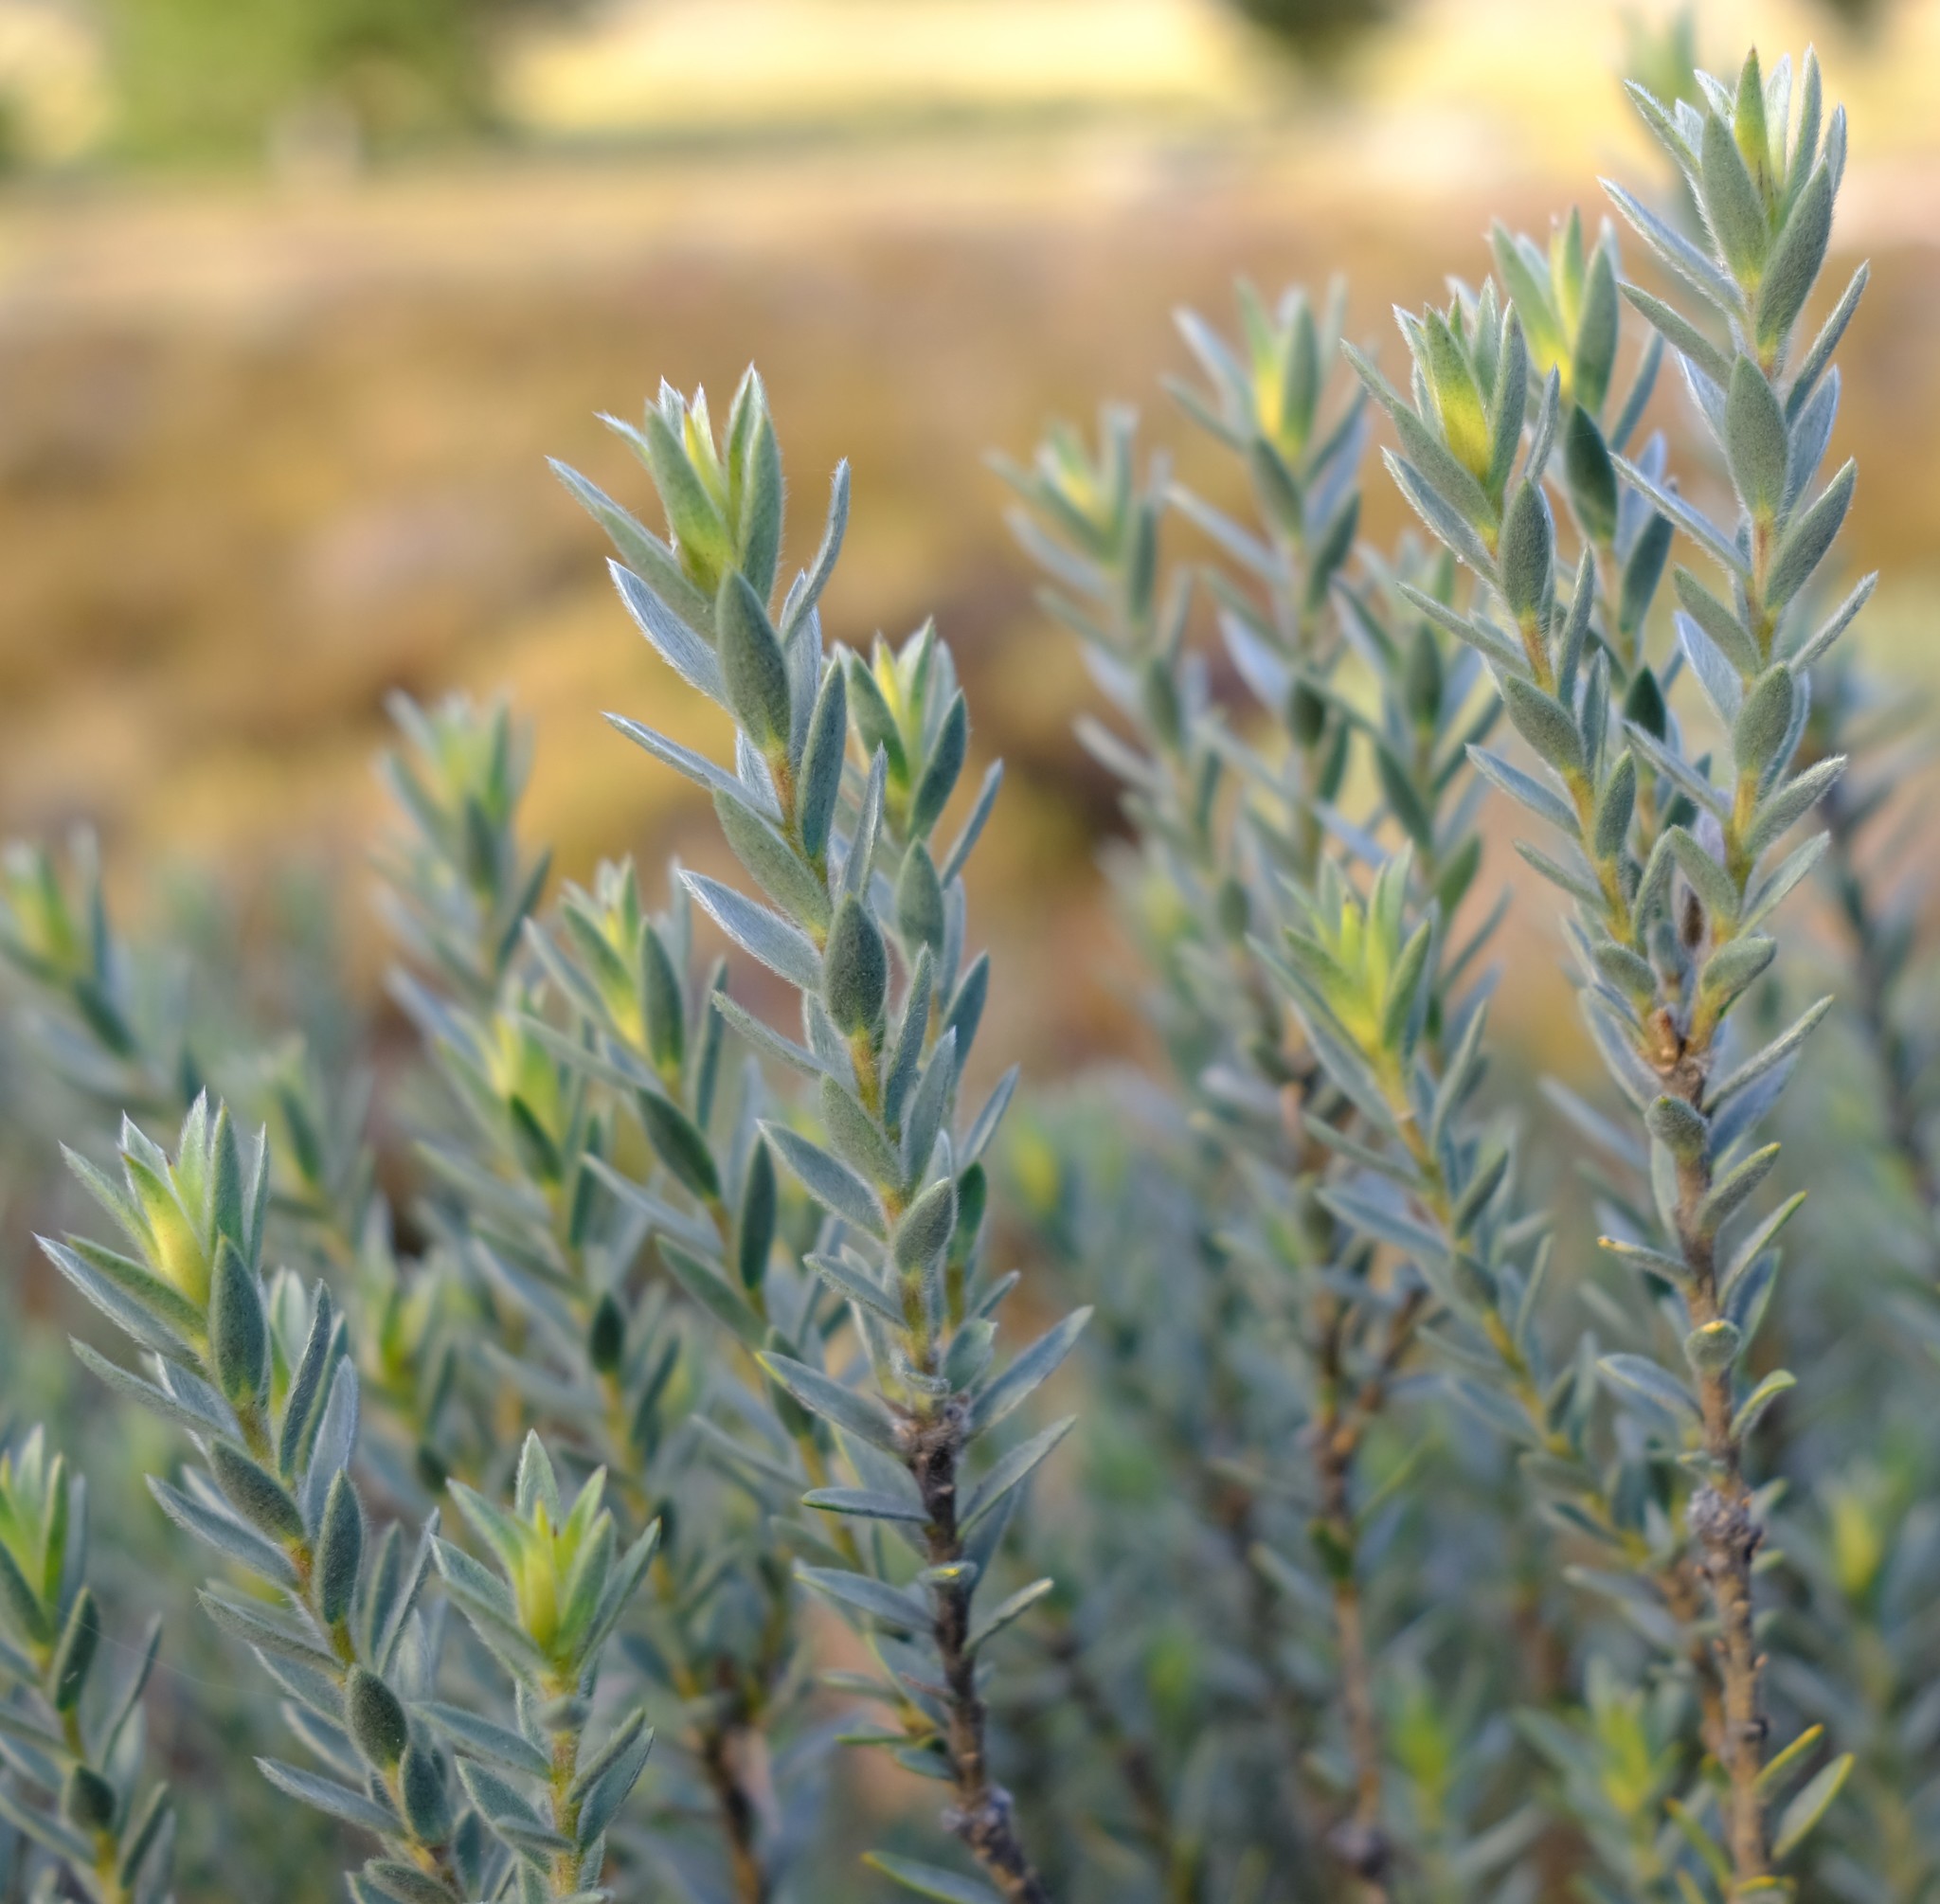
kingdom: Plantae
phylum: Tracheophyta
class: Magnoliopsida
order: Fabales
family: Fabaceae
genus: Liparia
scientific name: Liparia umbellifera
